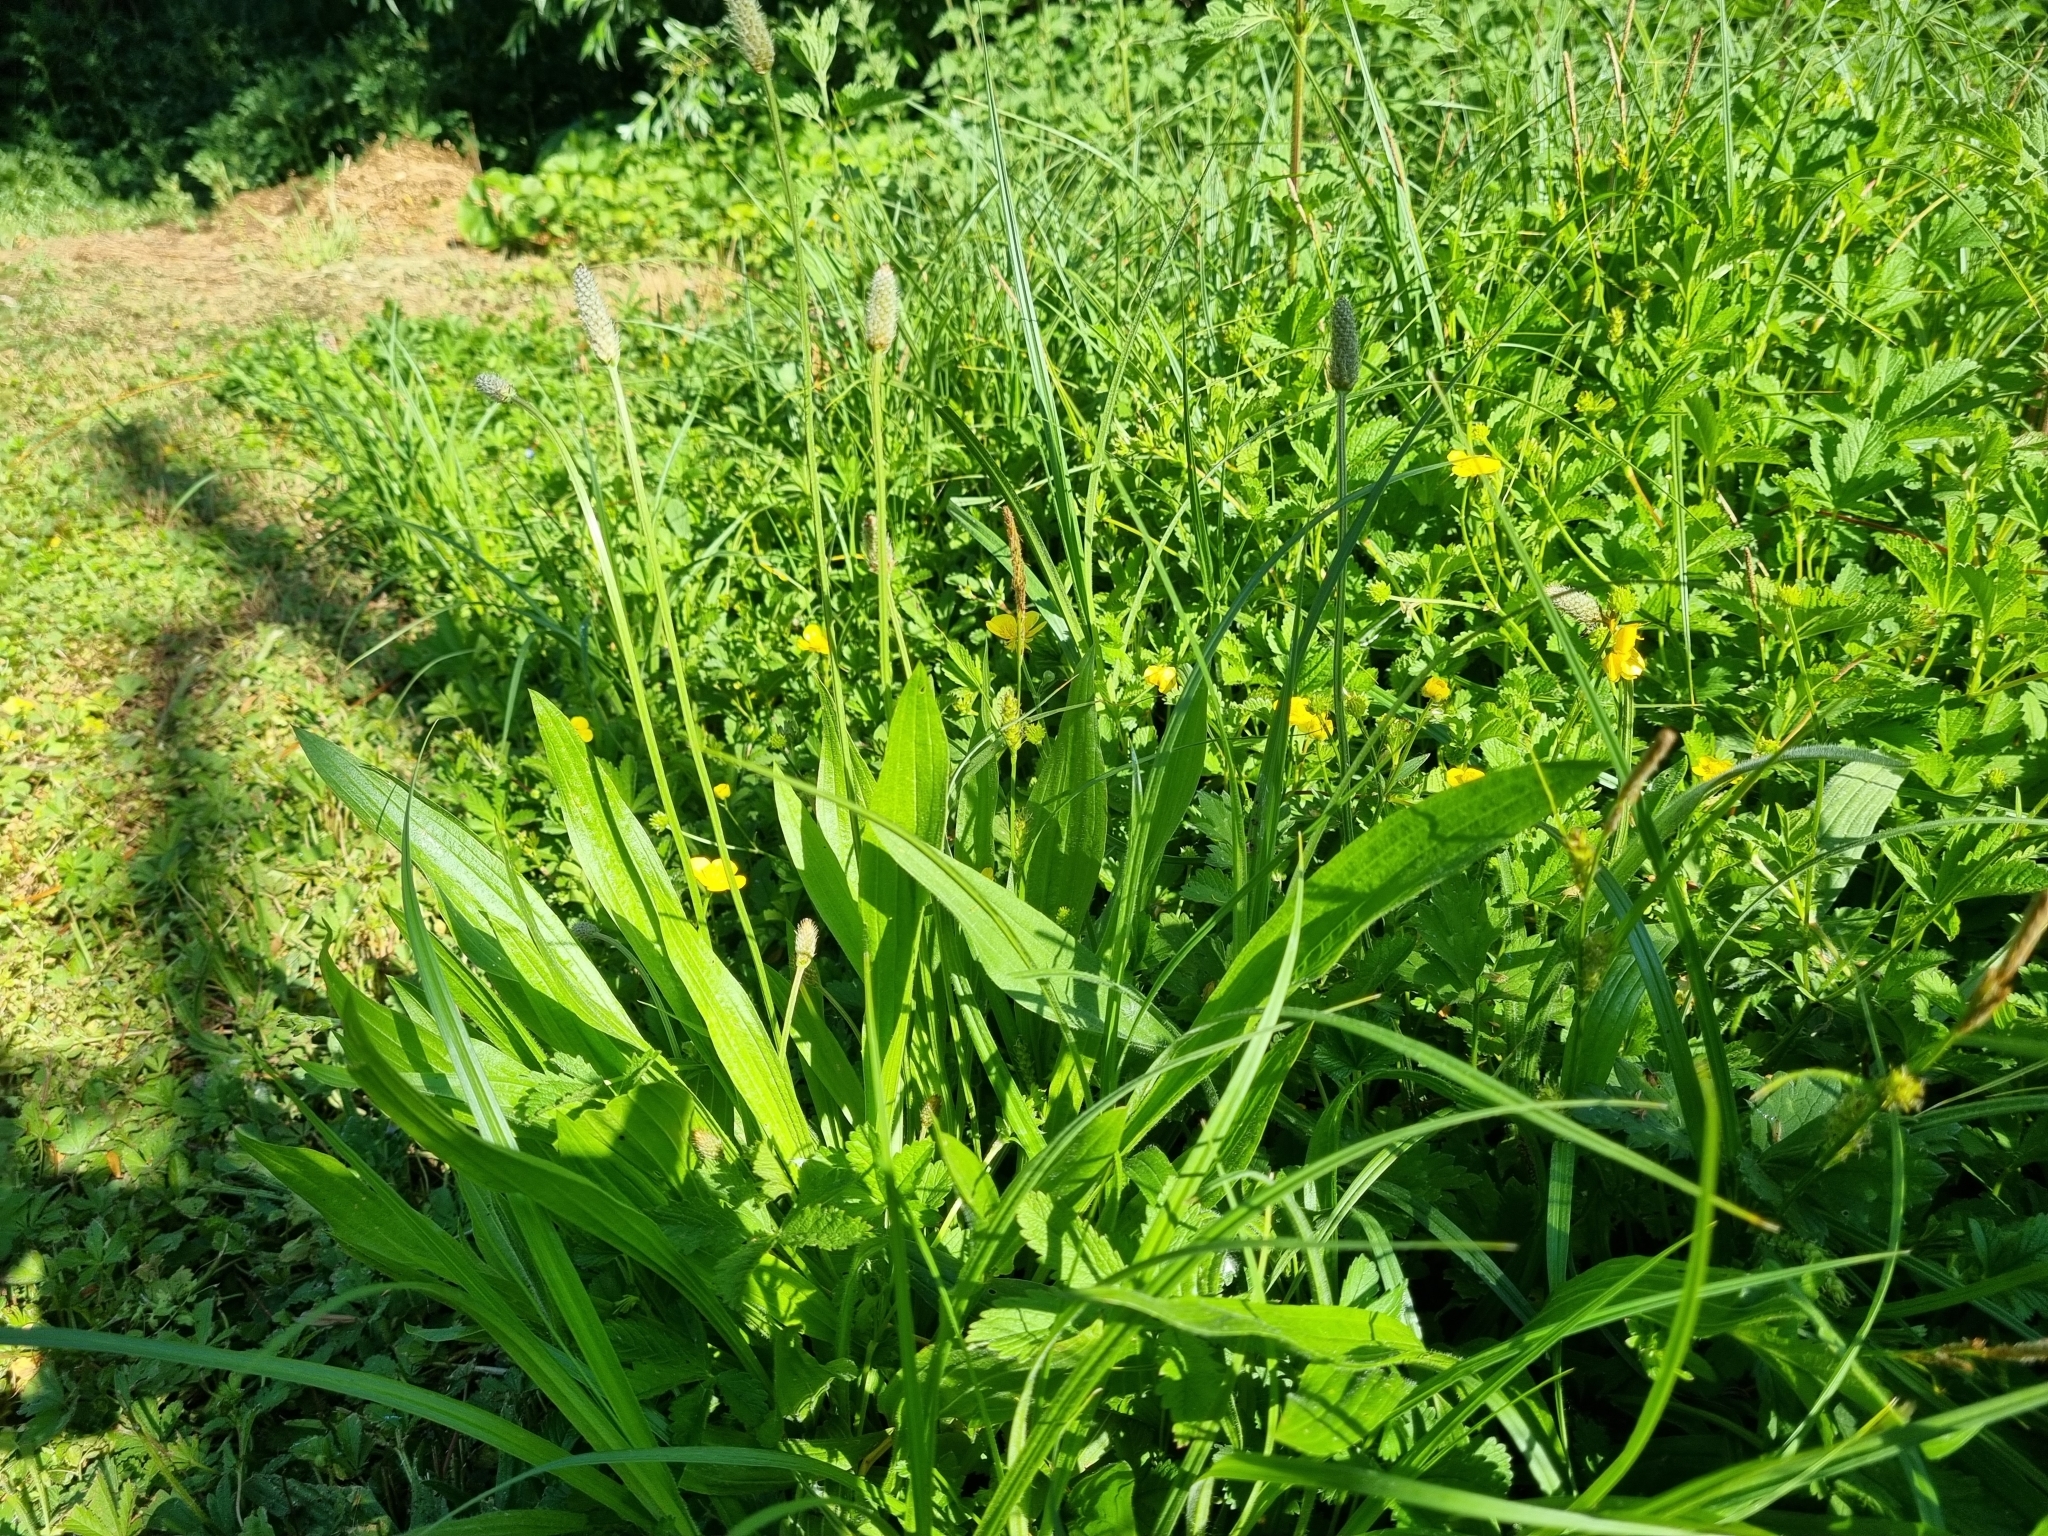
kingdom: Plantae
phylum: Tracheophyta
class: Magnoliopsida
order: Lamiales
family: Plantaginaceae
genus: Plantago
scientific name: Plantago lanceolata
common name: Ribwort plantain
